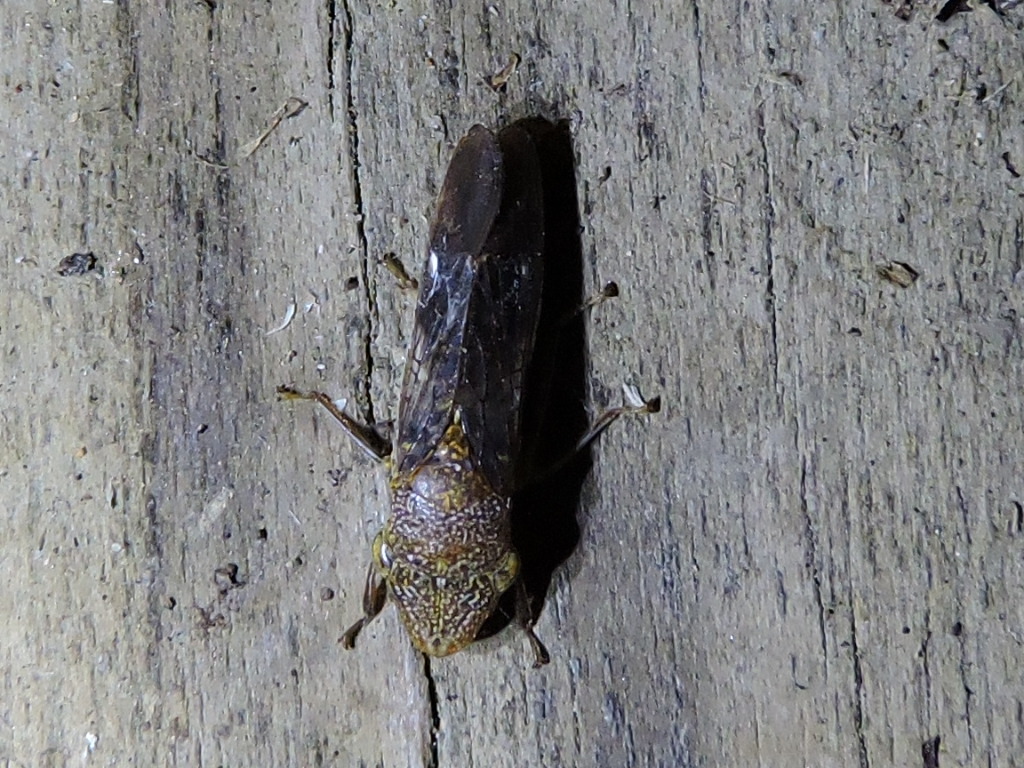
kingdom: Animalia
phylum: Arthropoda
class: Insecta
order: Hemiptera
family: Cicadellidae
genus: Homalodisca
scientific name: Homalodisca vitripennis
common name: Glassy-winged sharpshooter
